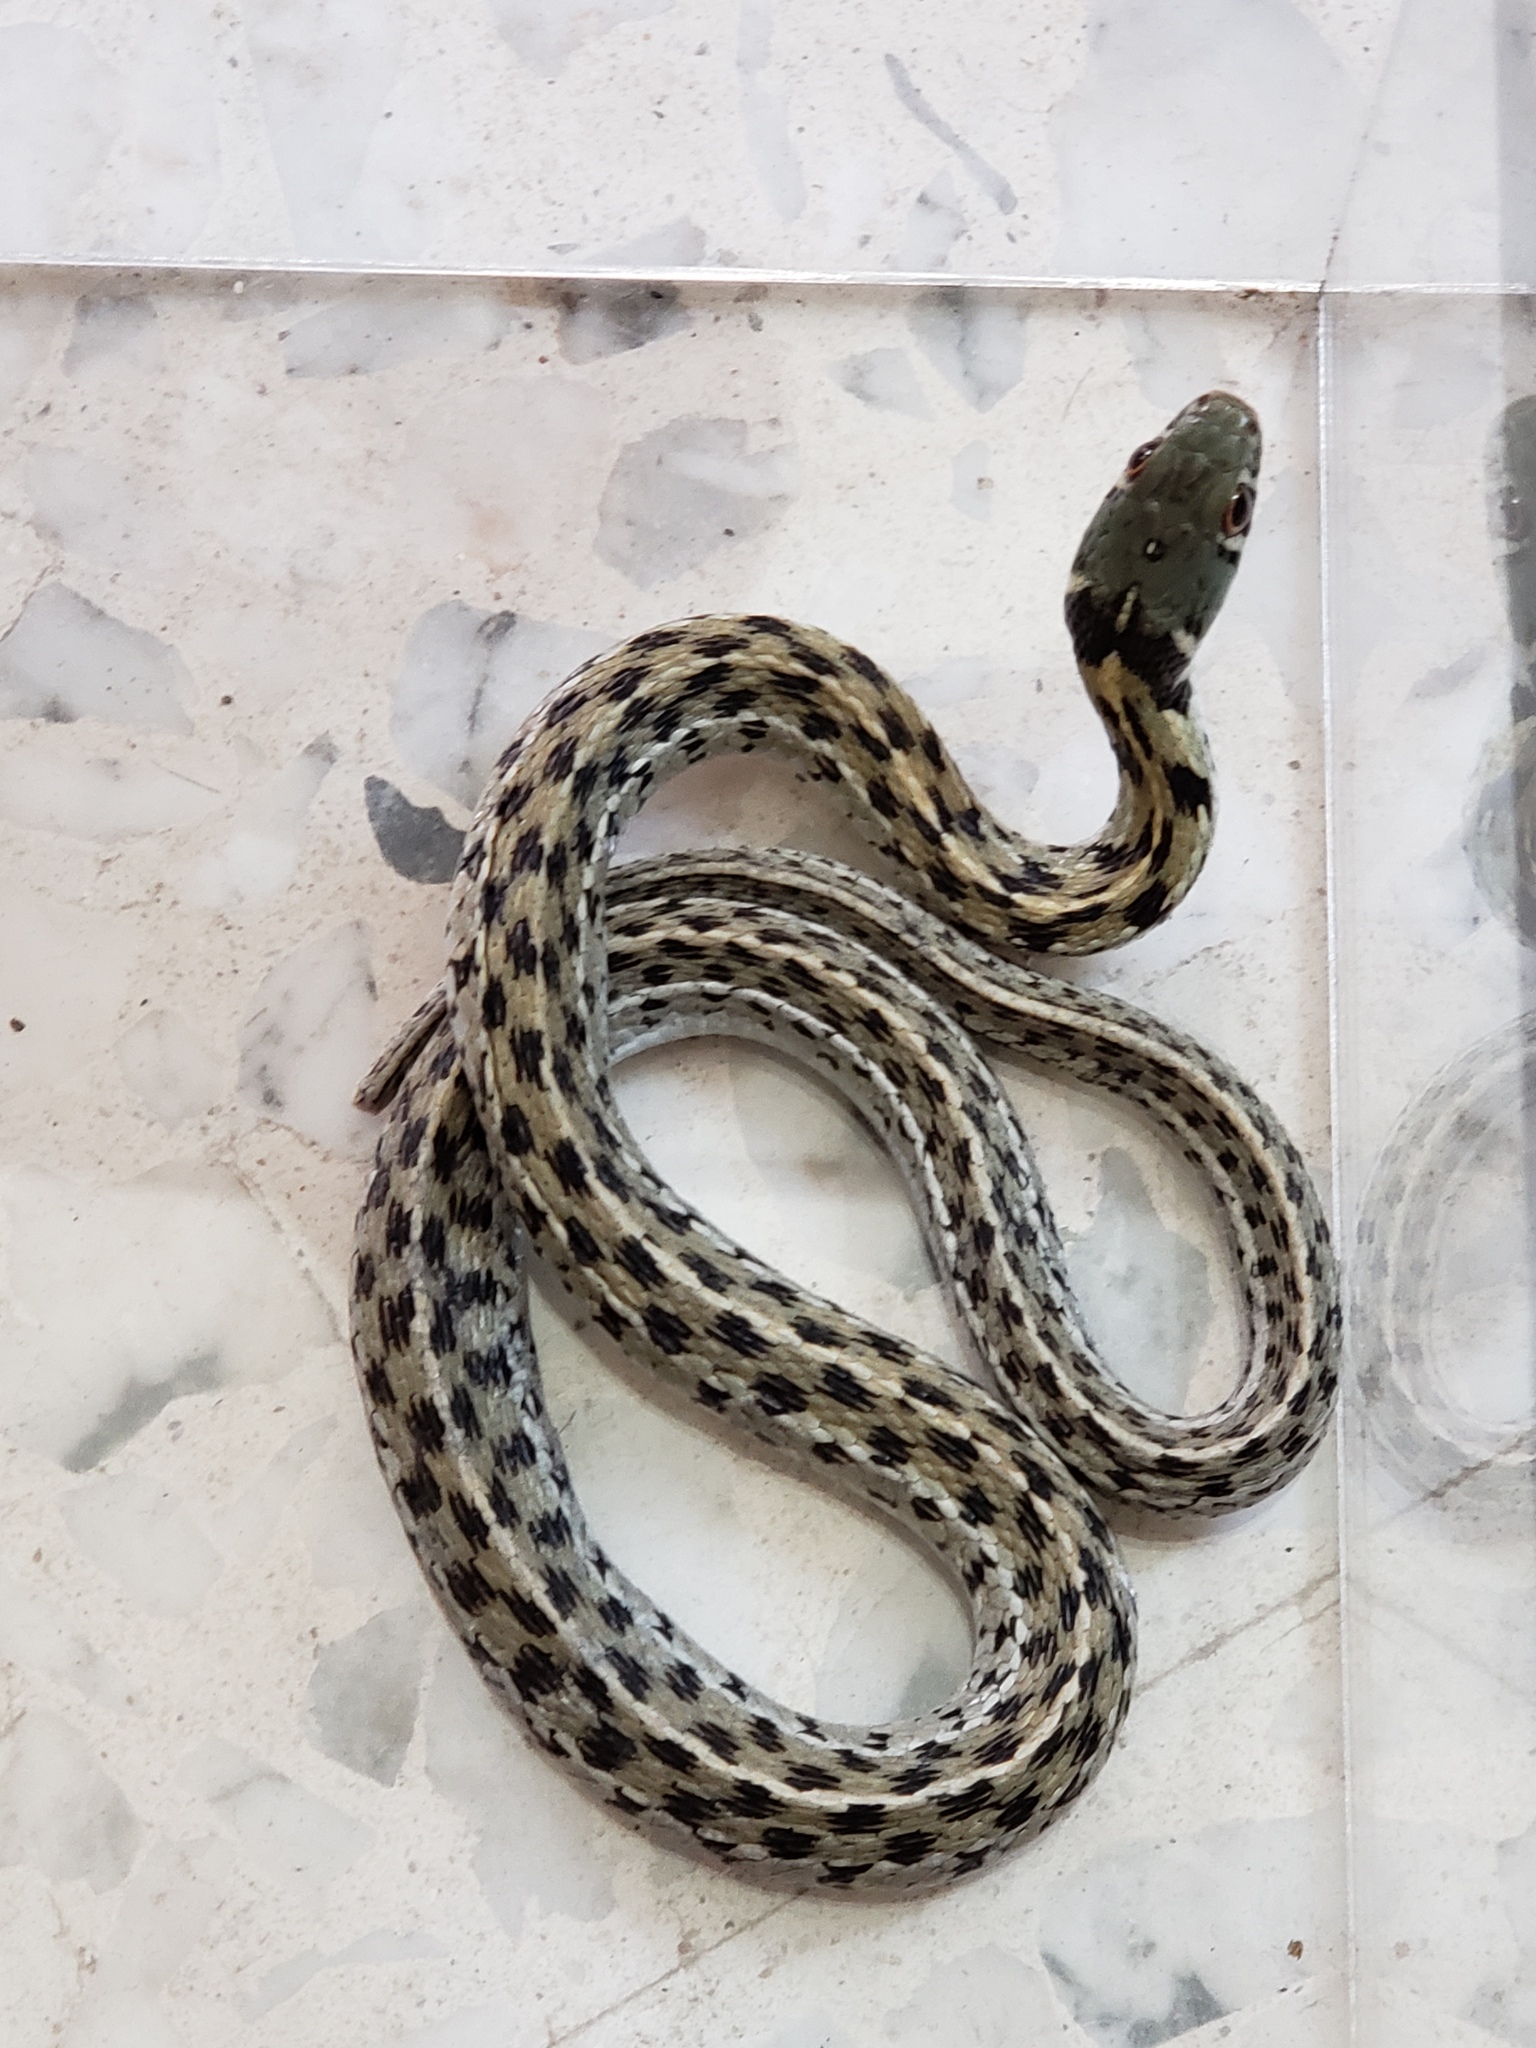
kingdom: Animalia
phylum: Chordata
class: Squamata
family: Colubridae
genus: Thamnophis
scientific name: Thamnophis marcianus
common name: Checkered garter snake
